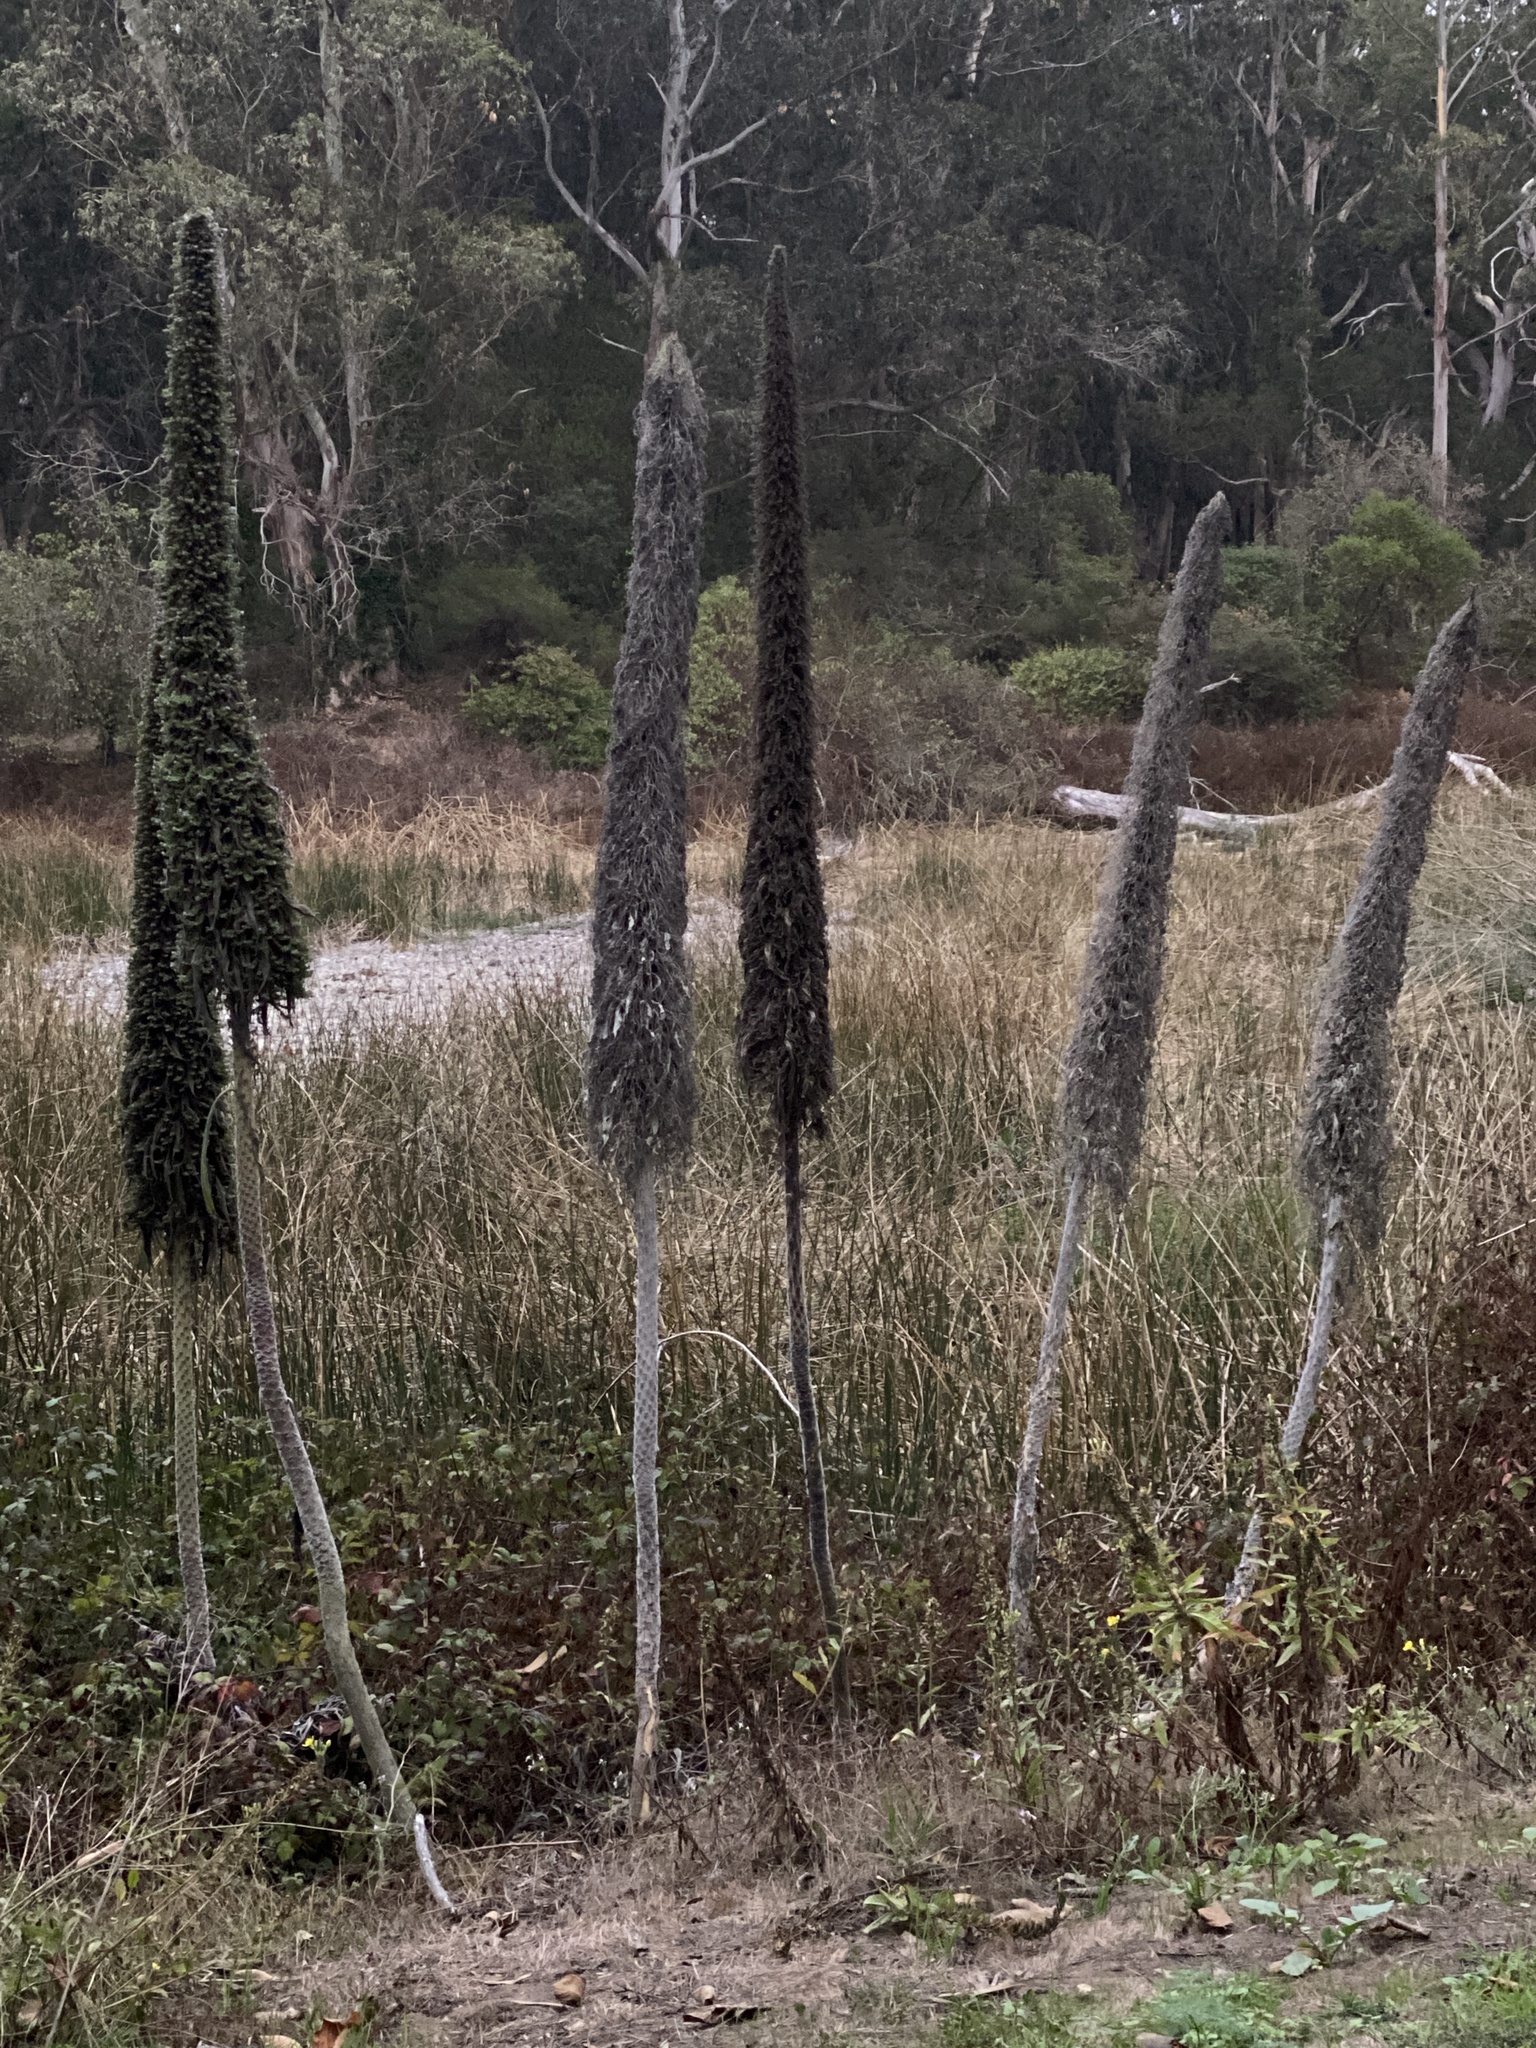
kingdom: Plantae
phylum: Tracheophyta
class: Magnoliopsida
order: Boraginales
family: Boraginaceae
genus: Echium
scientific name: Echium pininana
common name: Giant viper's-bugloss
